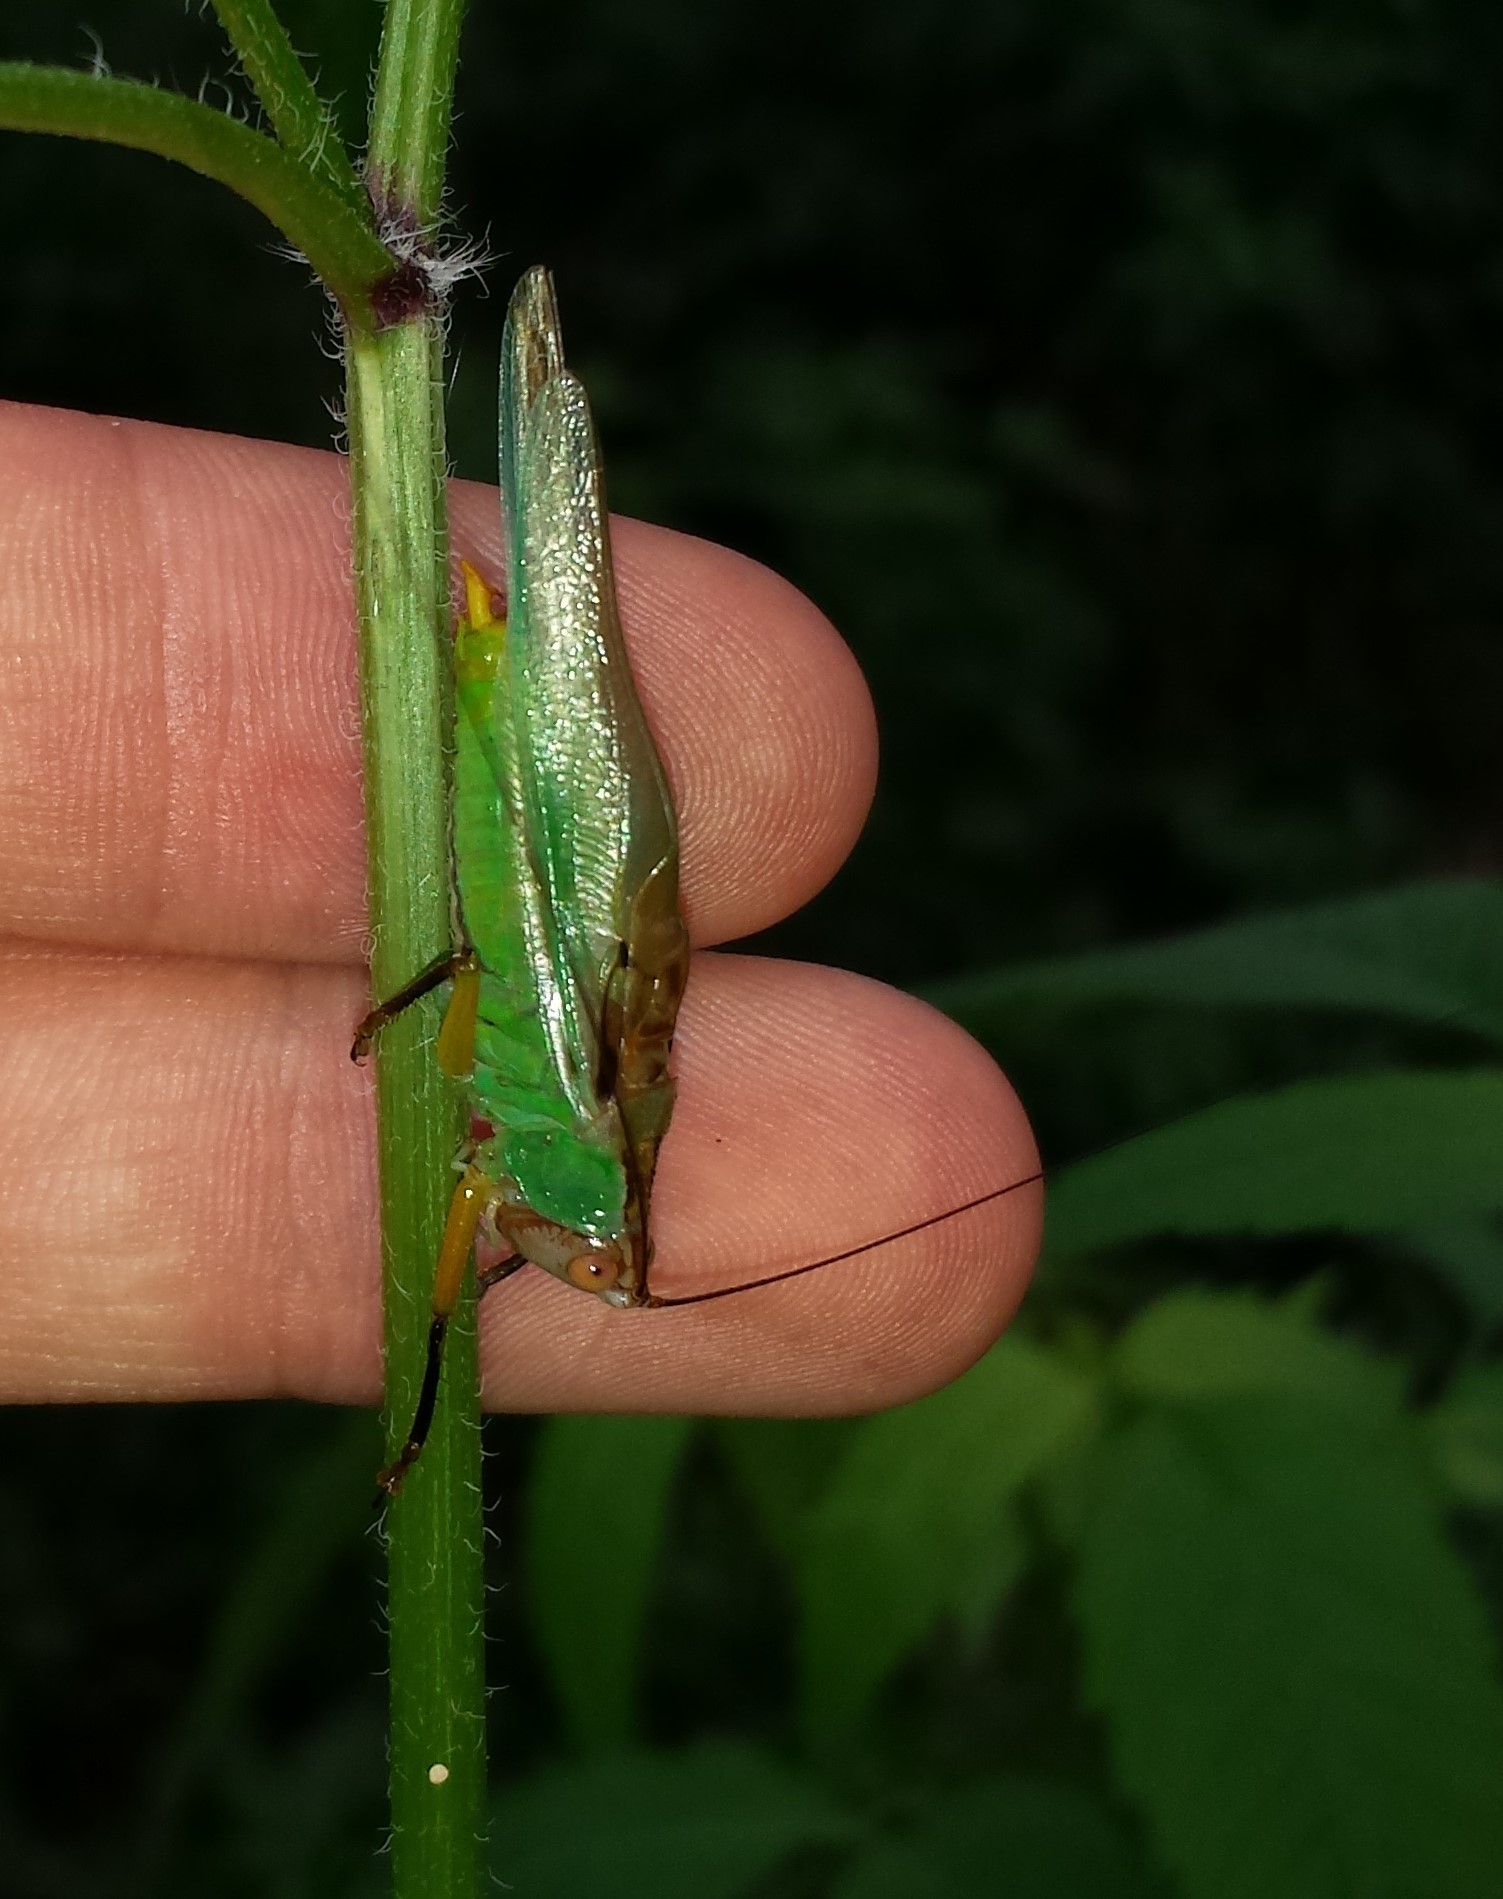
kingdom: Animalia
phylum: Arthropoda
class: Insecta
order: Orthoptera
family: Tettigoniidae
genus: Orchelimum
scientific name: Orchelimum nigripes
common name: Black-legged meadow katydid
